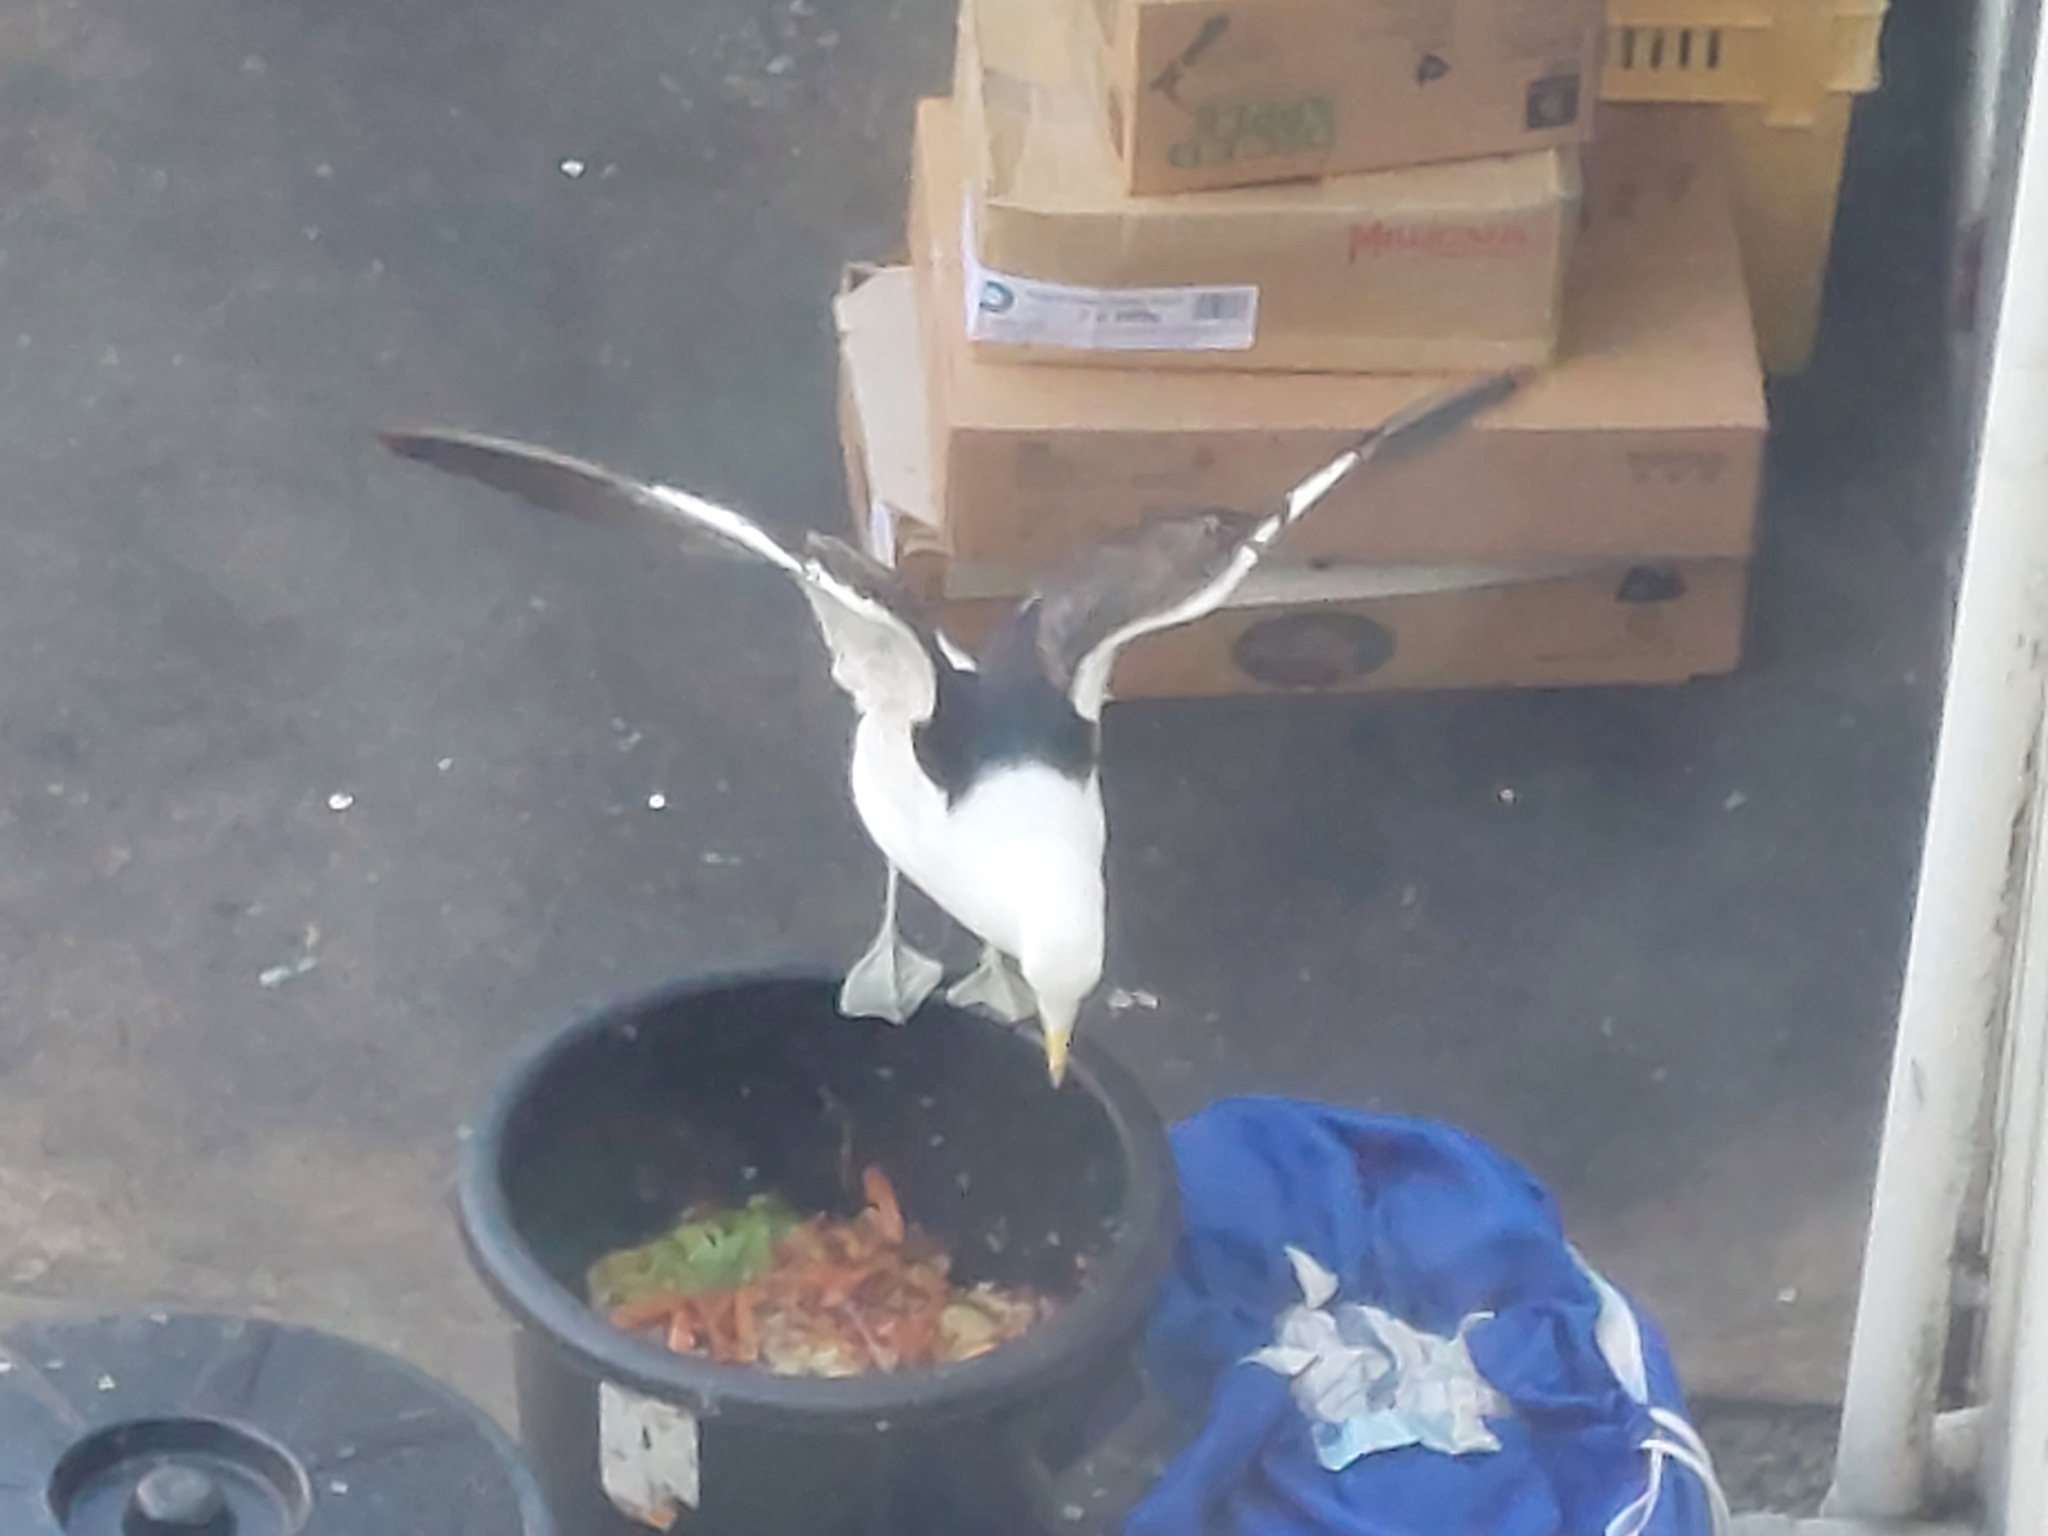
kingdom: Animalia
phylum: Chordata
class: Aves
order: Charadriiformes
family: Laridae
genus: Larus
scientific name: Larus dominicanus
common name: Kelp gull
